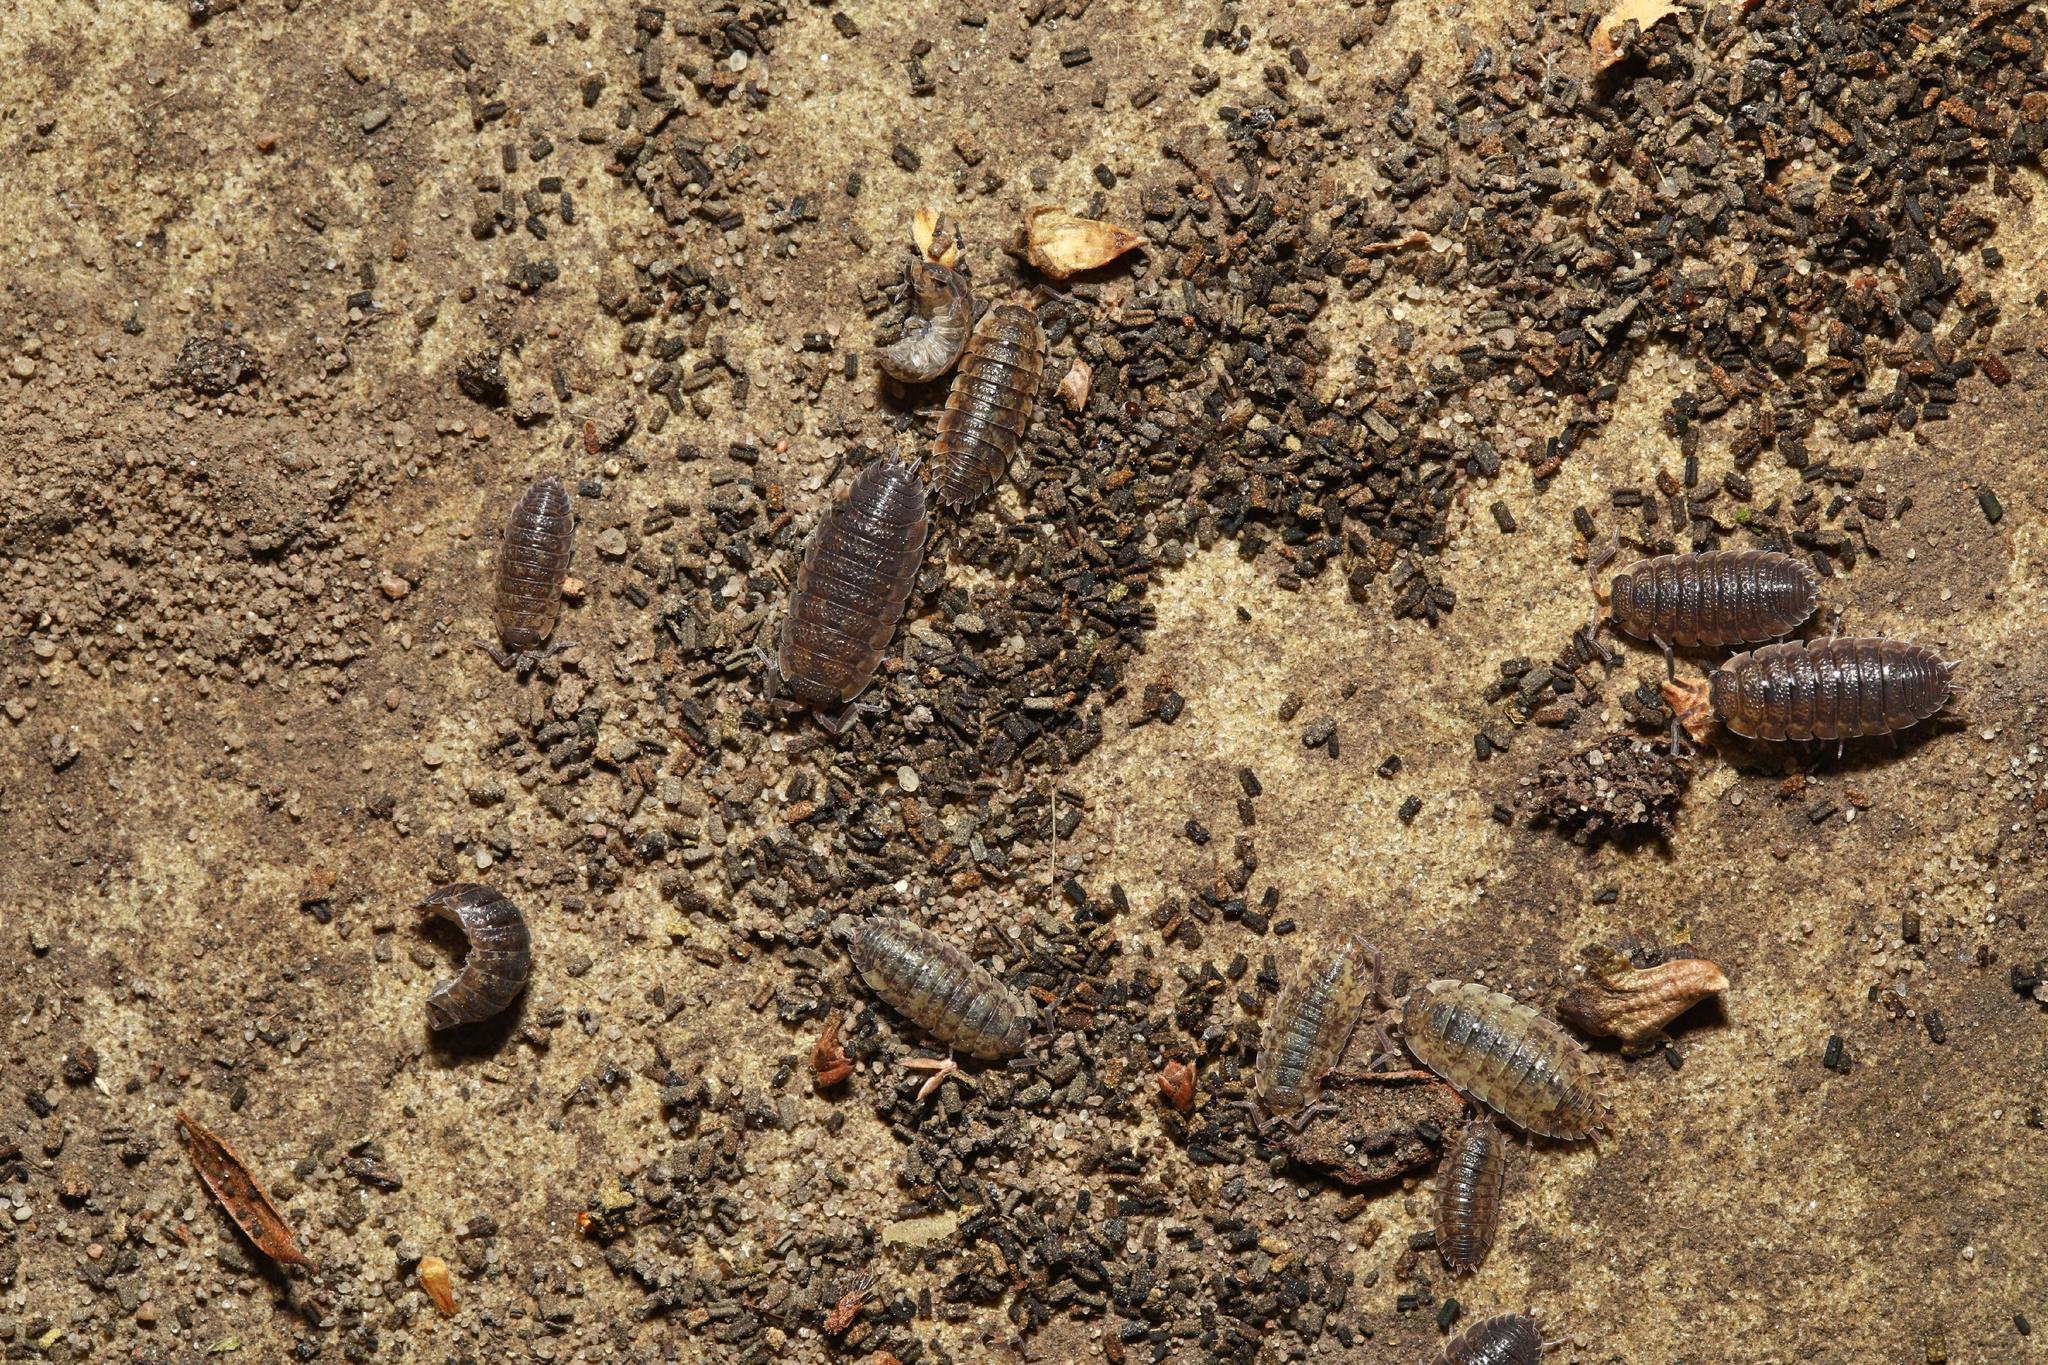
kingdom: Animalia
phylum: Arthropoda
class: Malacostraca
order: Isopoda
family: Porcellionidae
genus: Porcellio
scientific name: Porcellio scaber
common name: Common rough woodlouse
